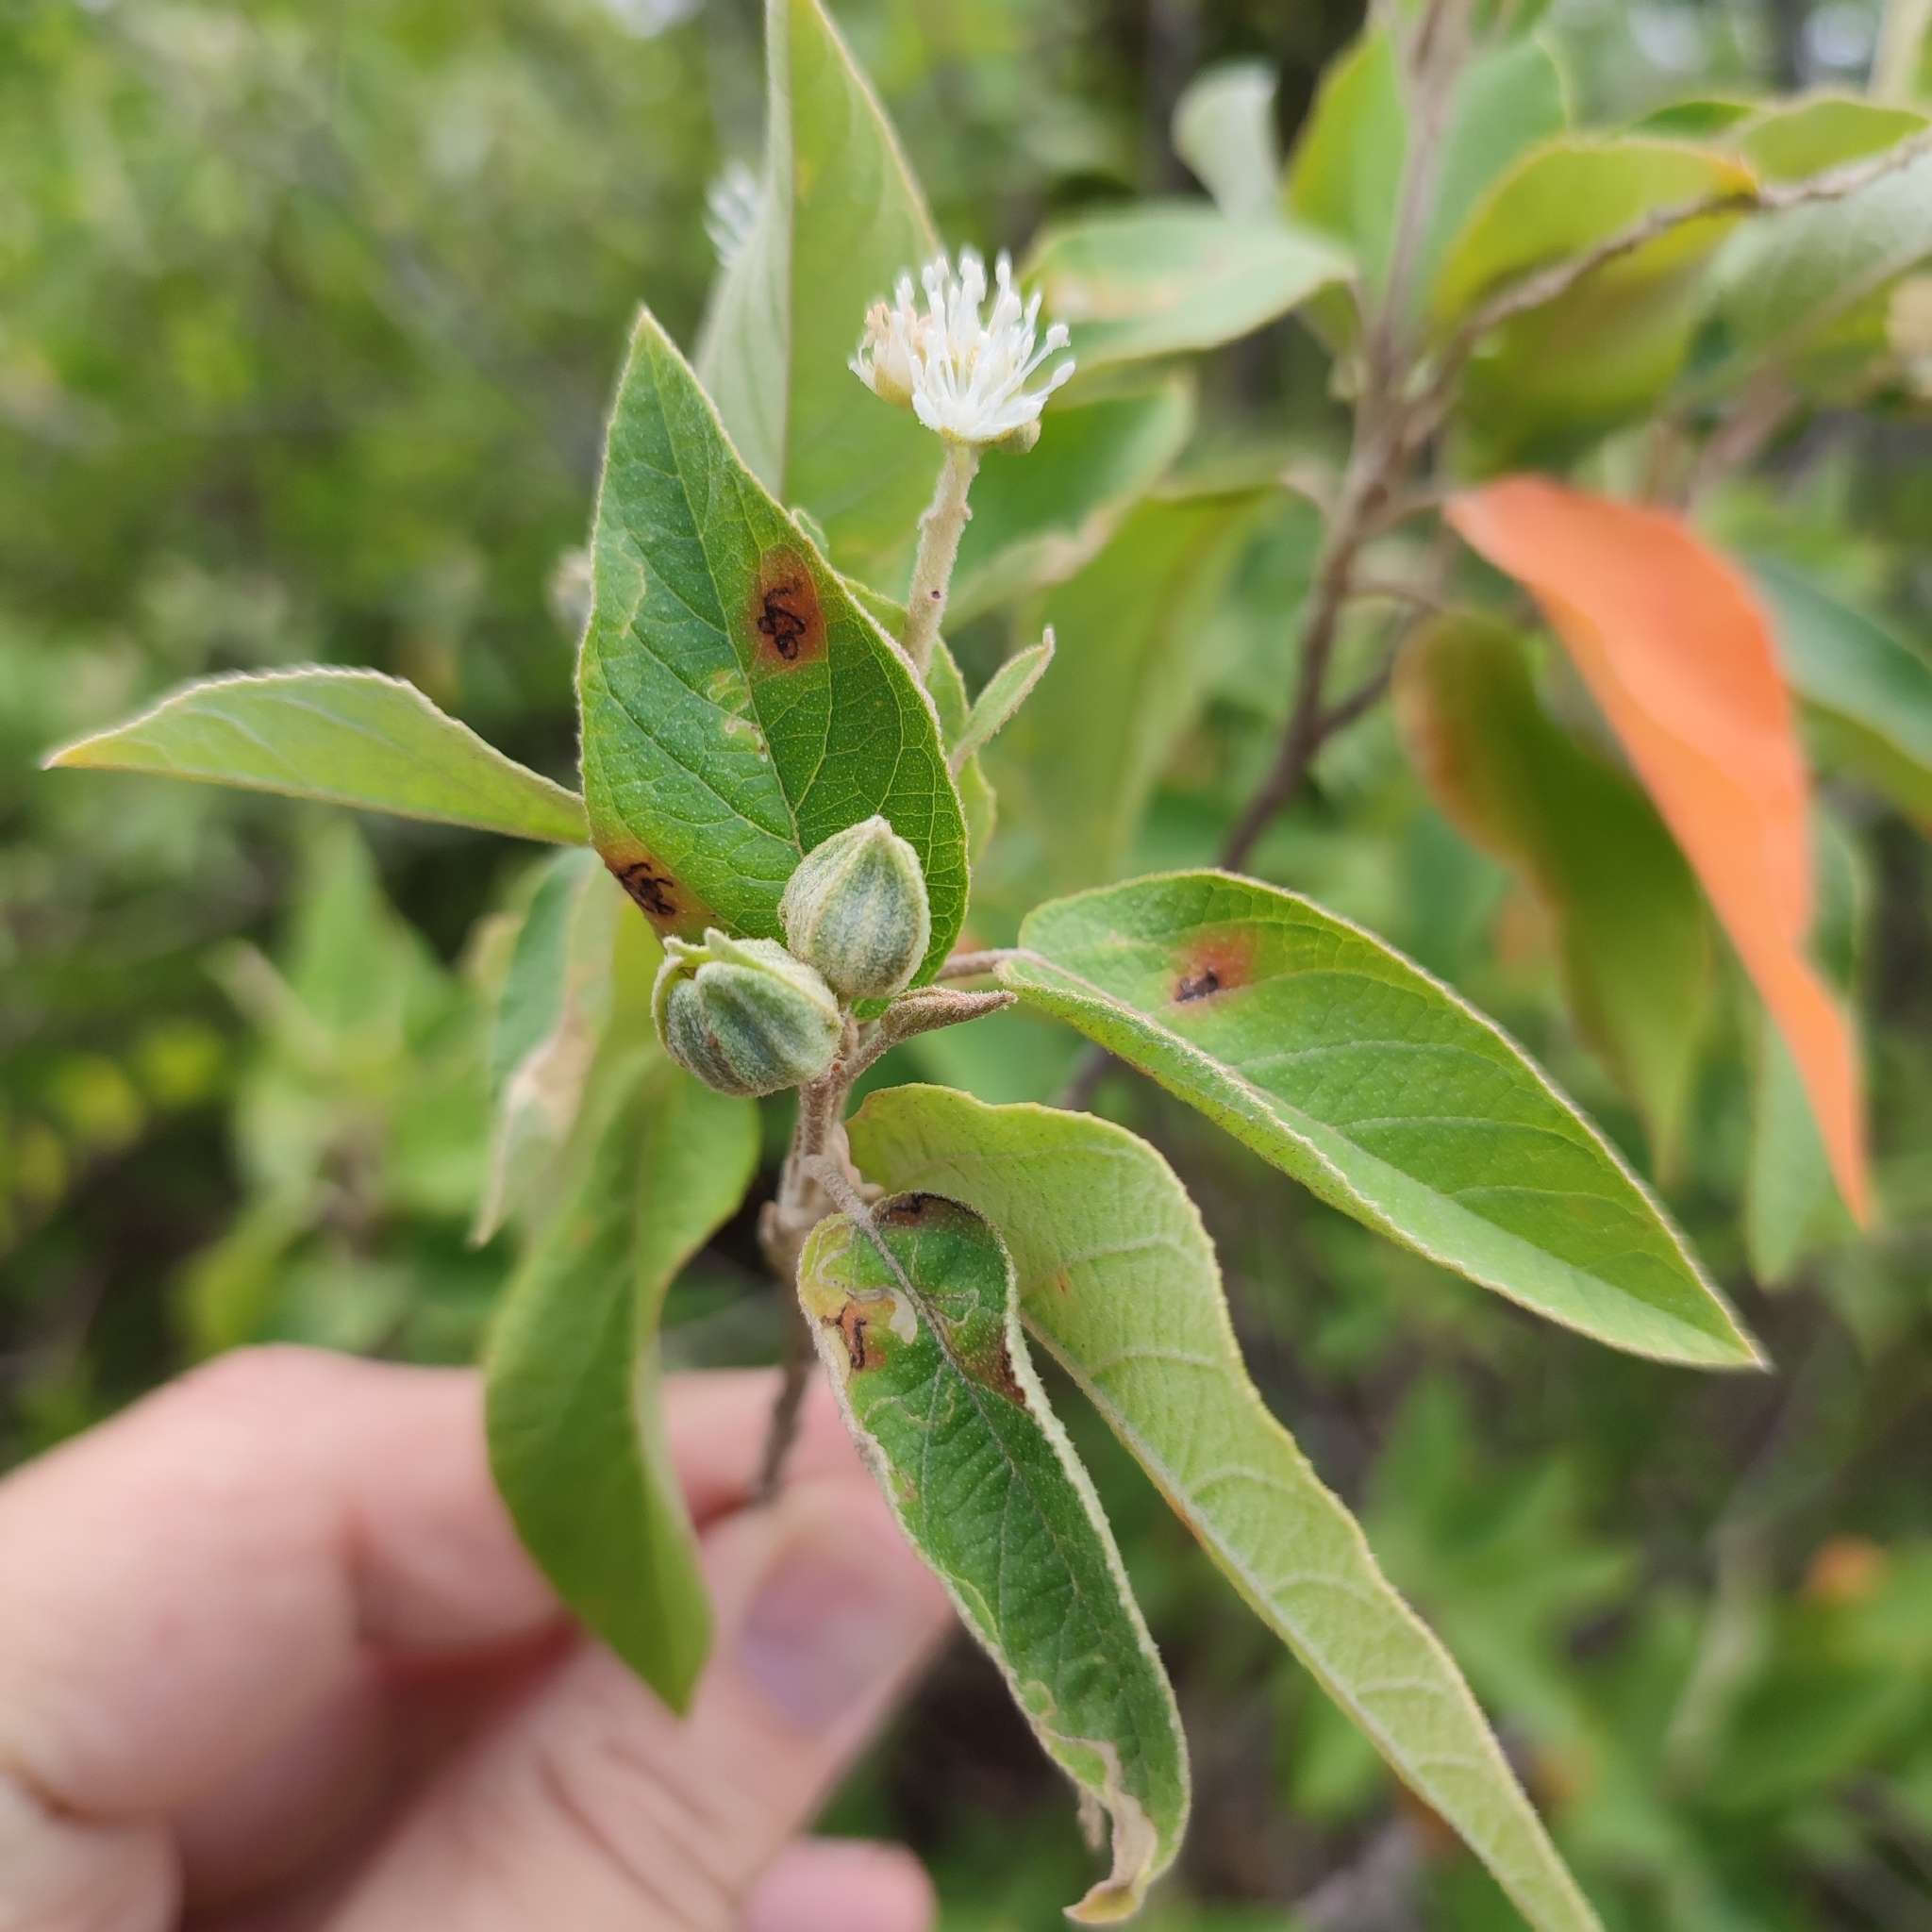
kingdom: Plantae
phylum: Tracheophyta
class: Magnoliopsida
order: Malpighiales
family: Euphorbiaceae
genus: Croton
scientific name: Croton astroites
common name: Wild marrow
